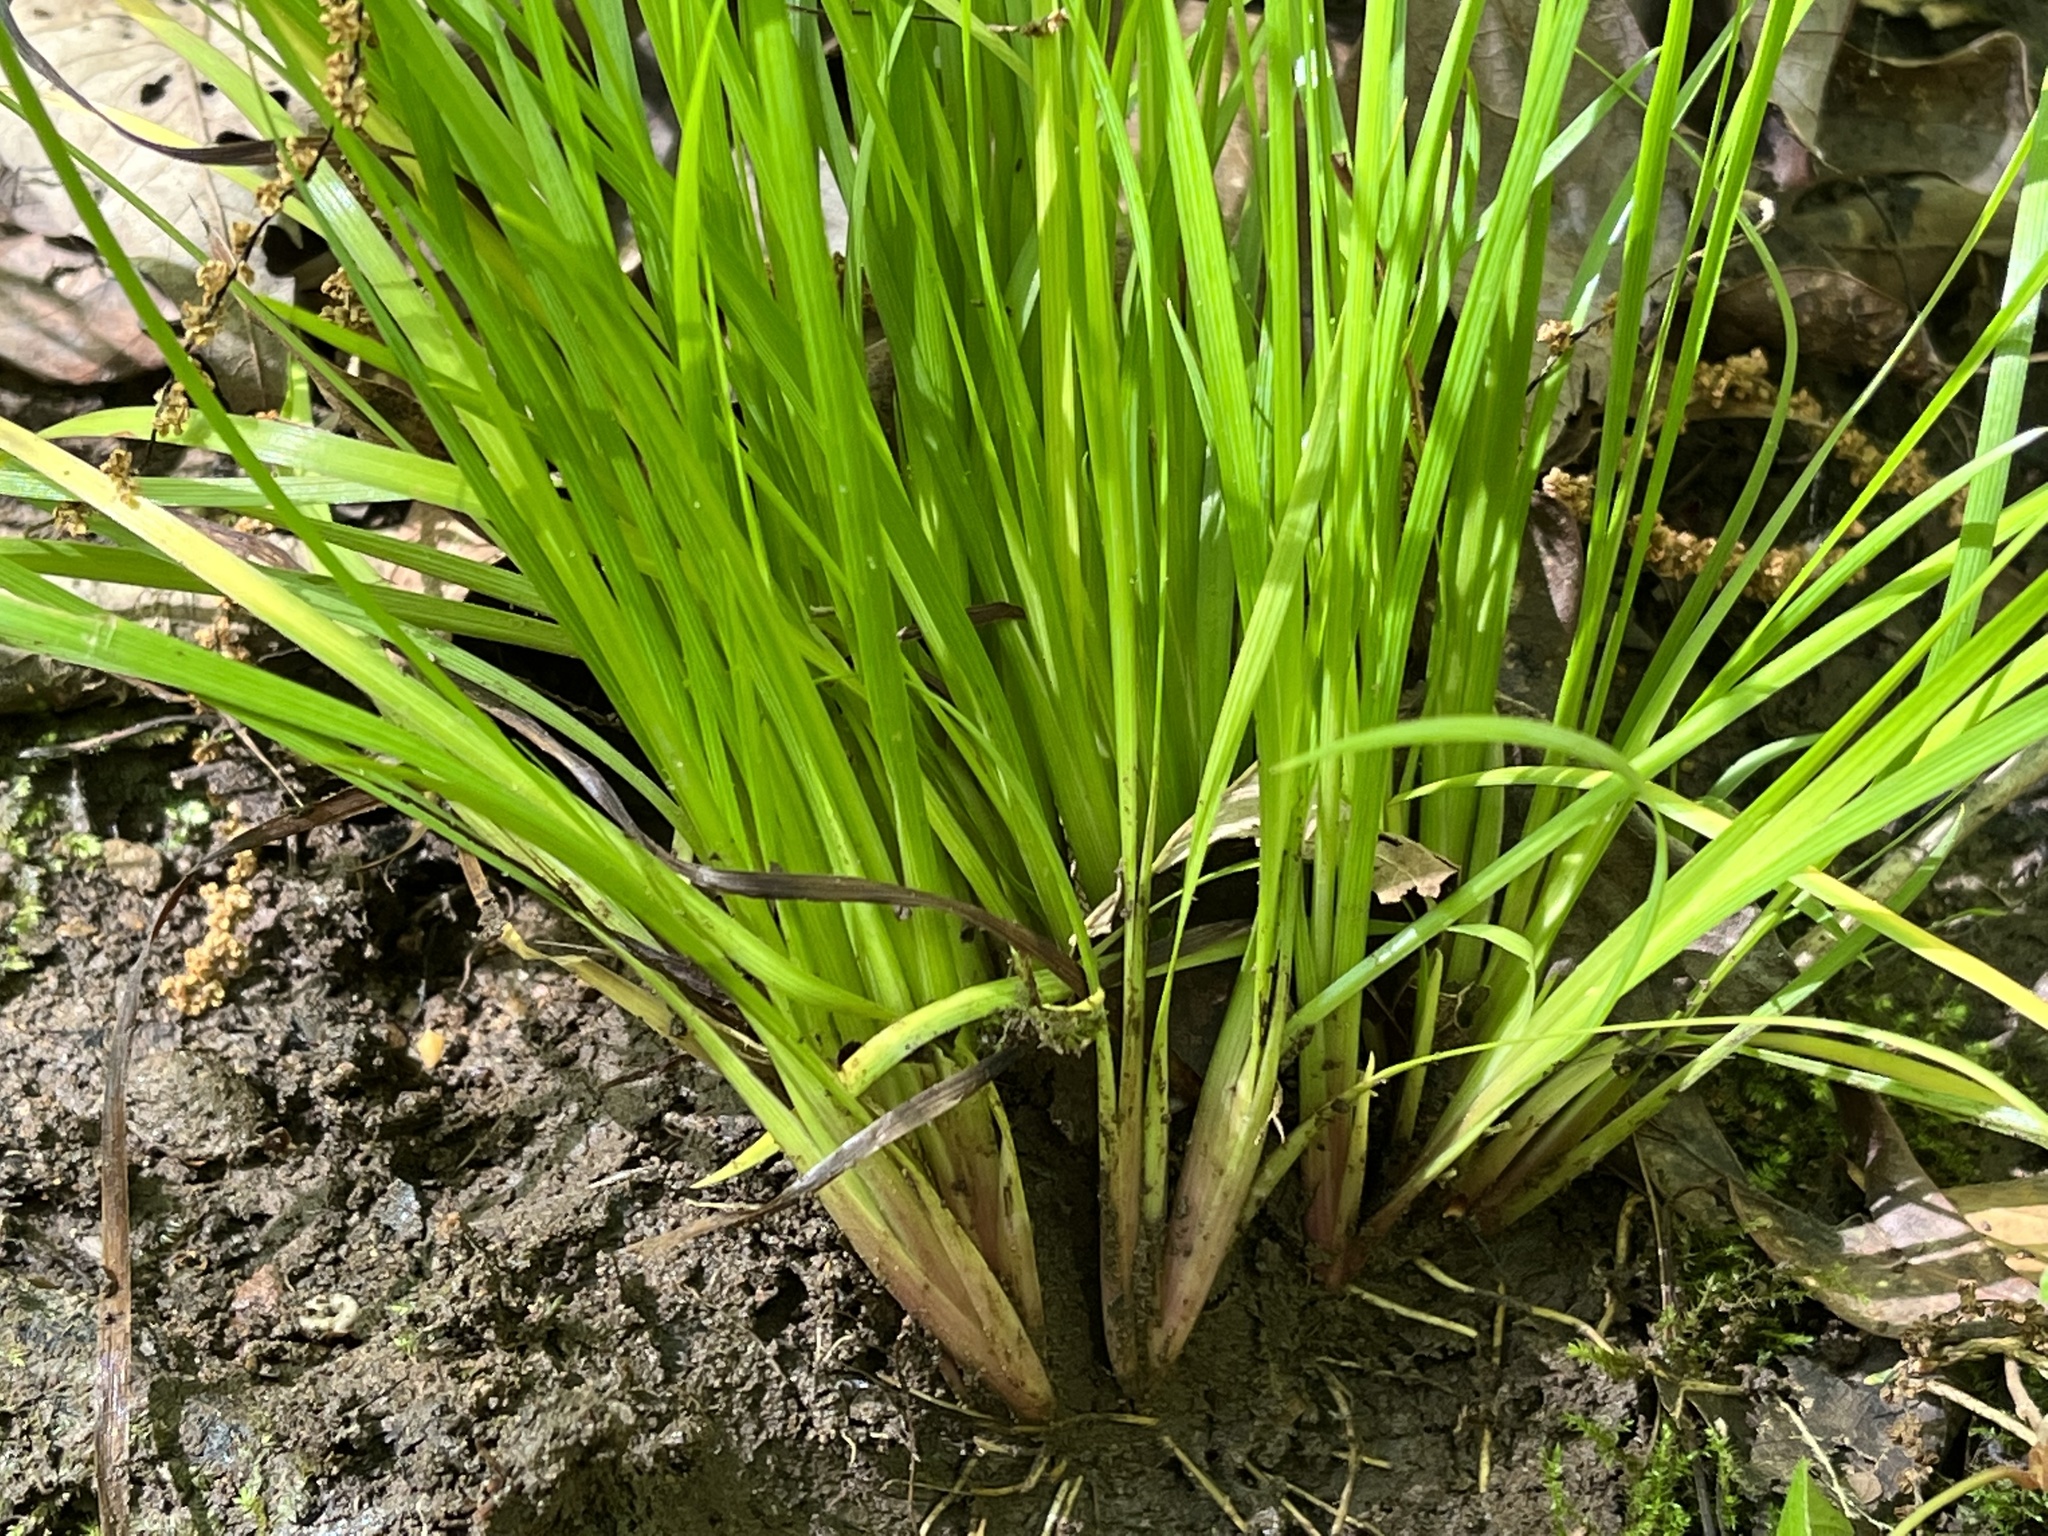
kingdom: Plantae
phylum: Tracheophyta
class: Liliopsida
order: Asparagales
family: Iridaceae
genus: Sisyrinchium
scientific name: Sisyrinchium angustifolium
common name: Narrow-leaf blue-eyed-grass
